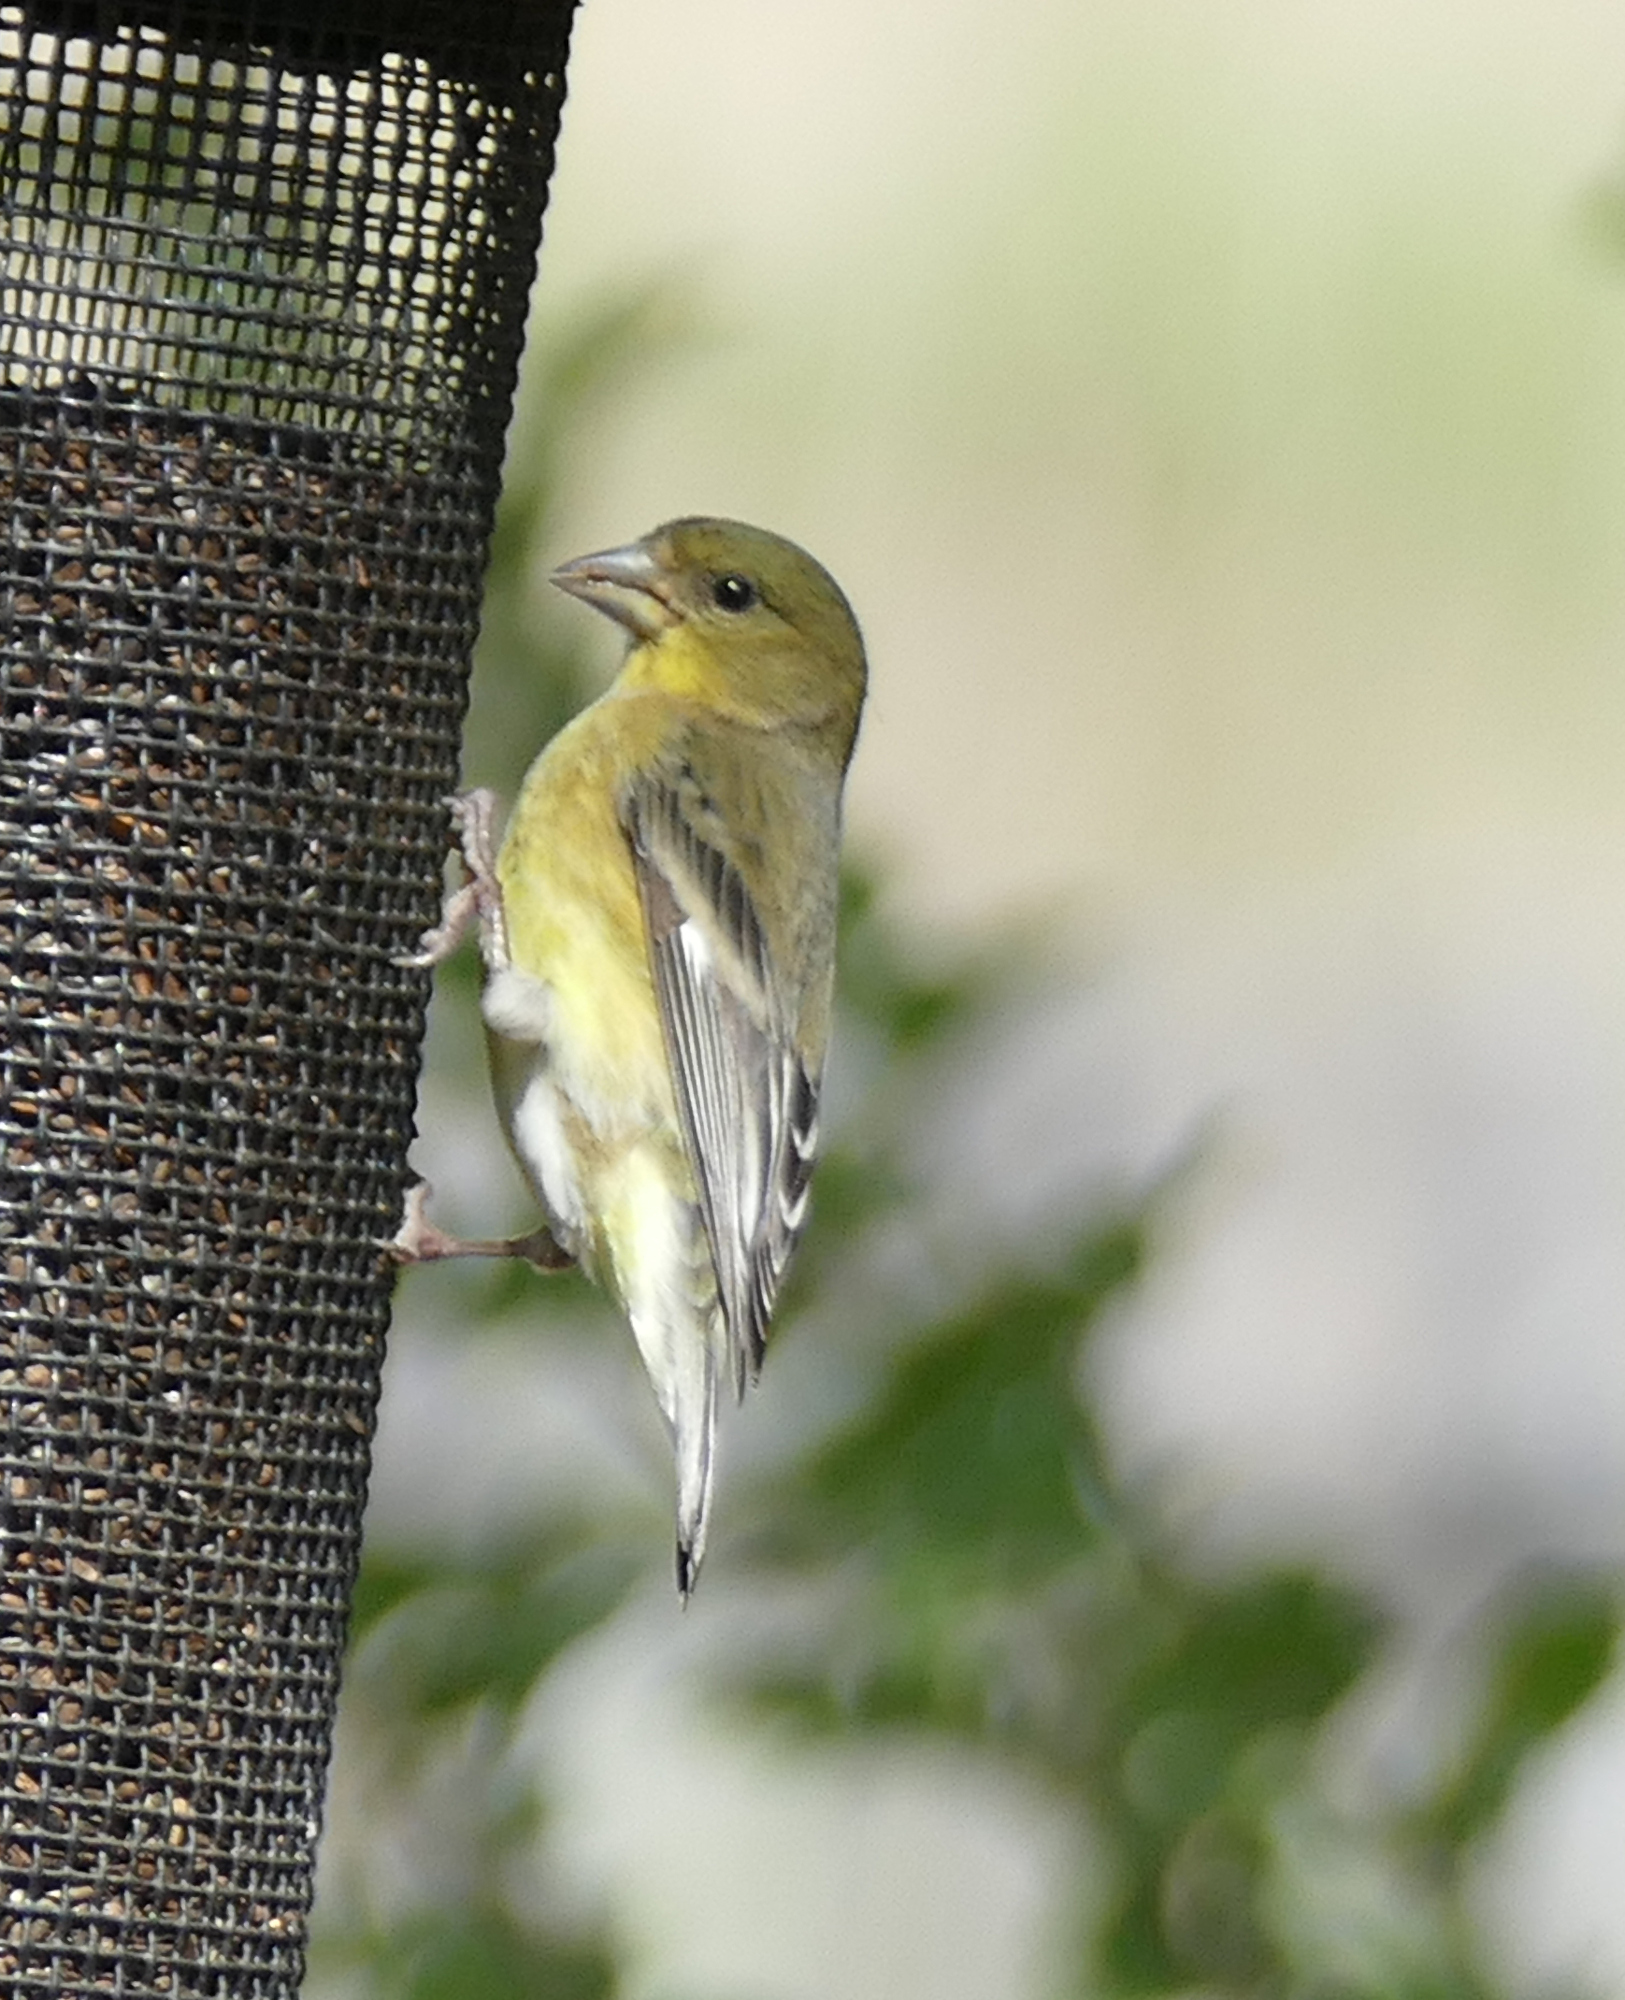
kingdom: Animalia
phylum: Chordata
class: Aves
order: Passeriformes
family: Fringillidae
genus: Spinus
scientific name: Spinus psaltria
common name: Lesser goldfinch
